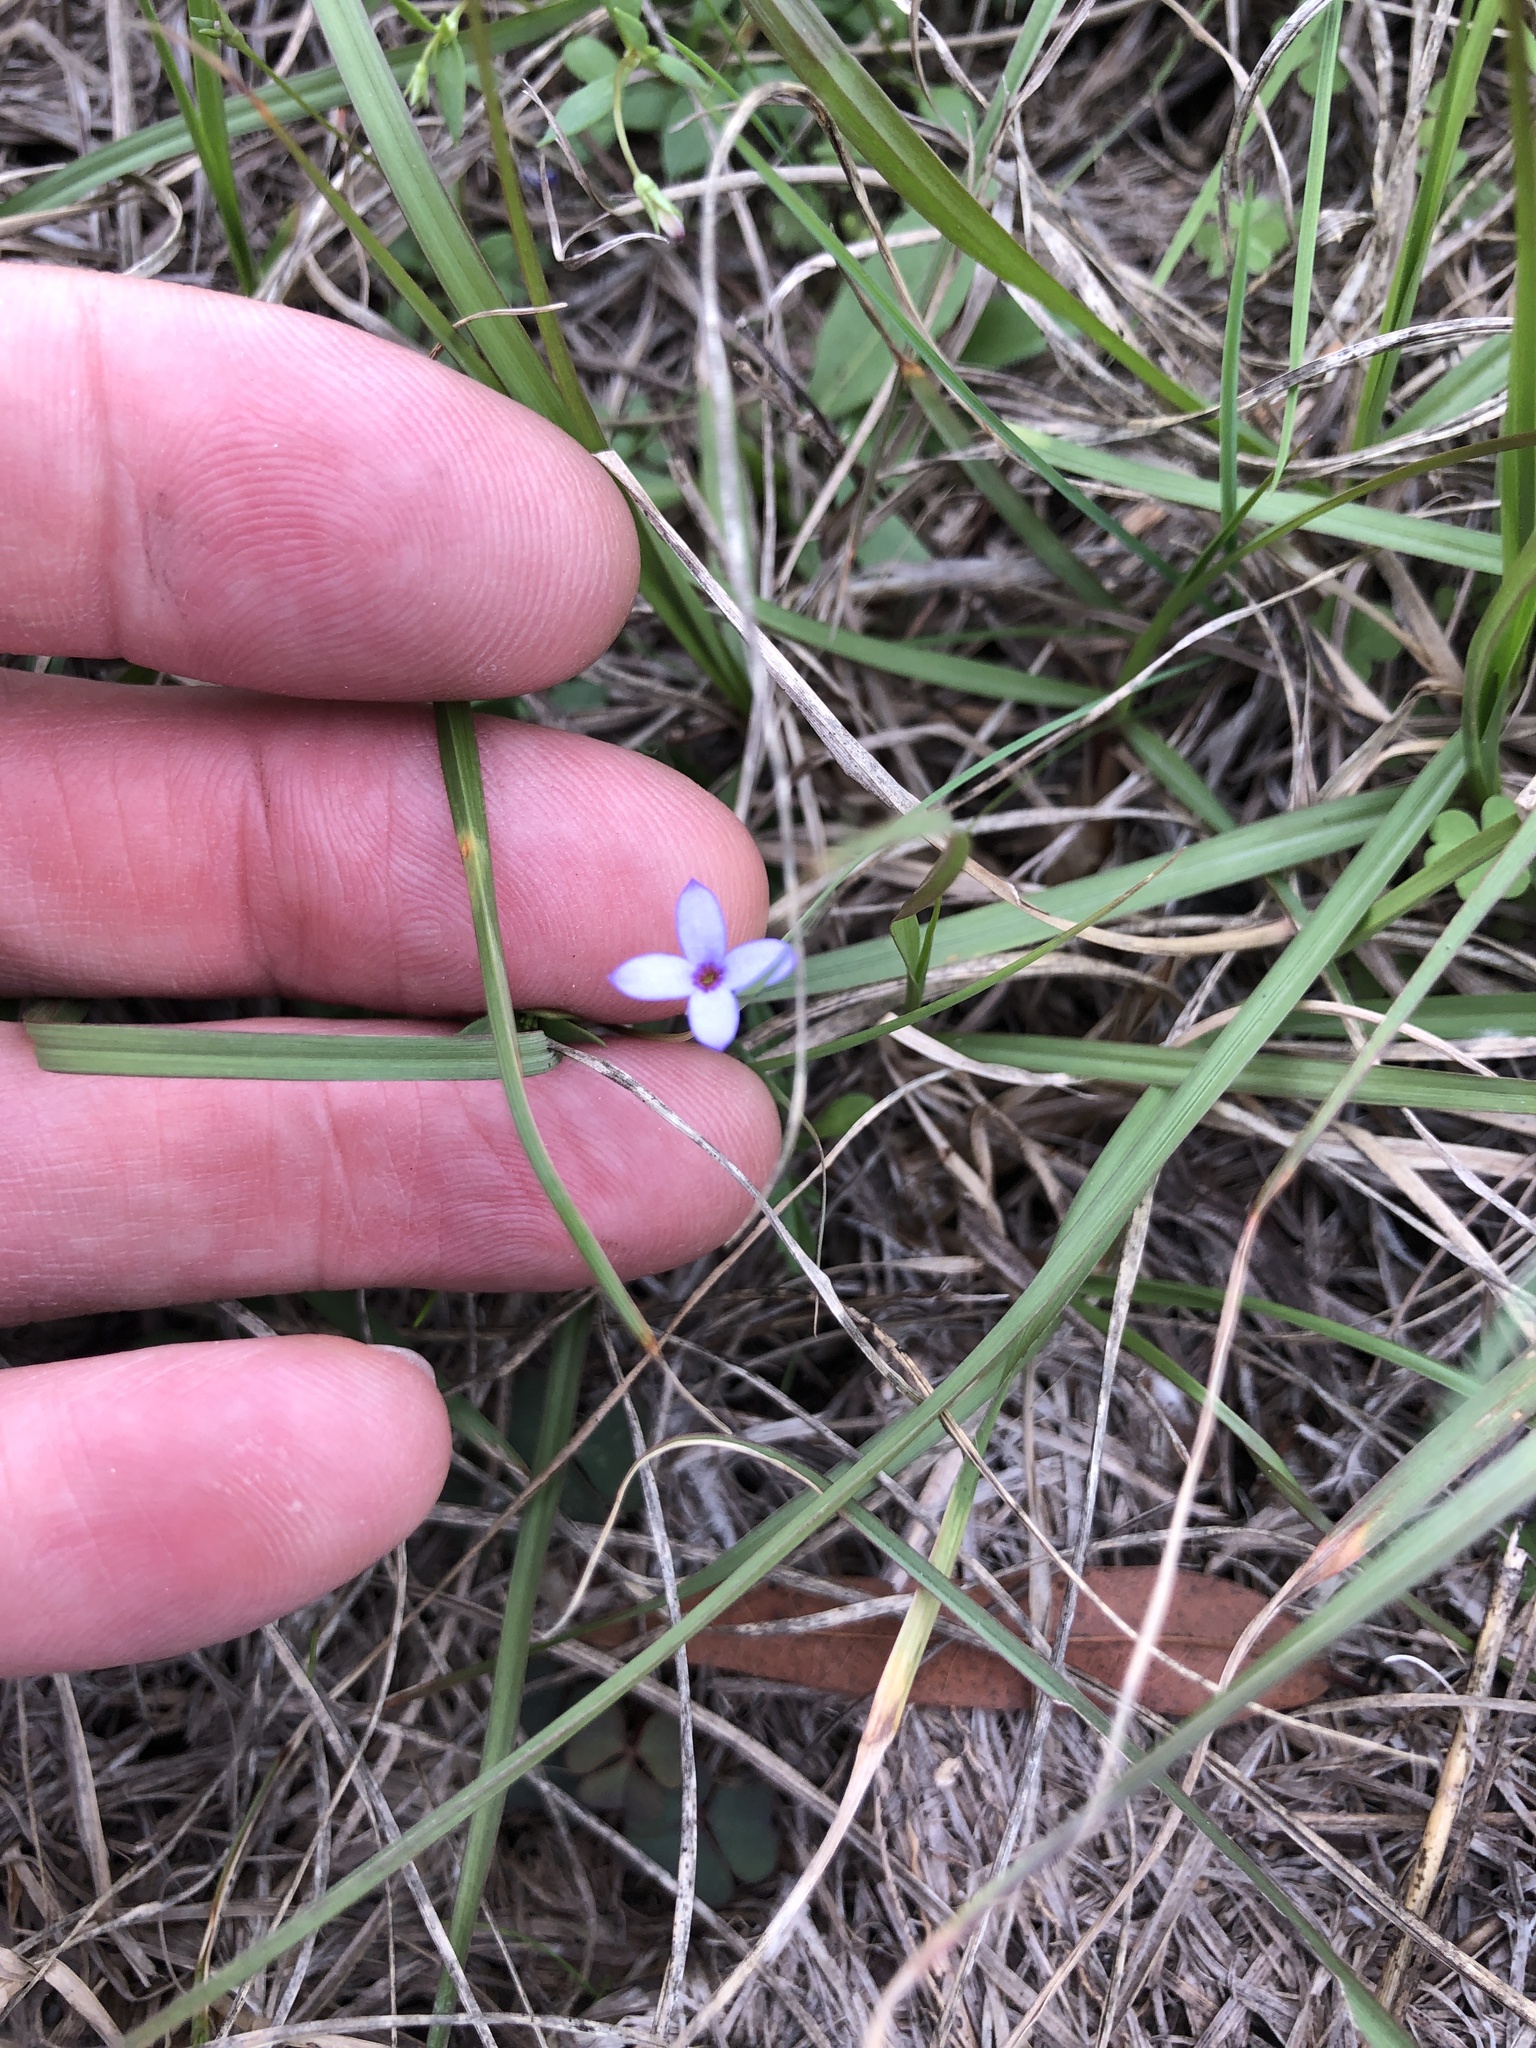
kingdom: Plantae
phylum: Tracheophyta
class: Magnoliopsida
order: Gentianales
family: Rubiaceae
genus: Houstonia
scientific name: Houstonia pusilla
